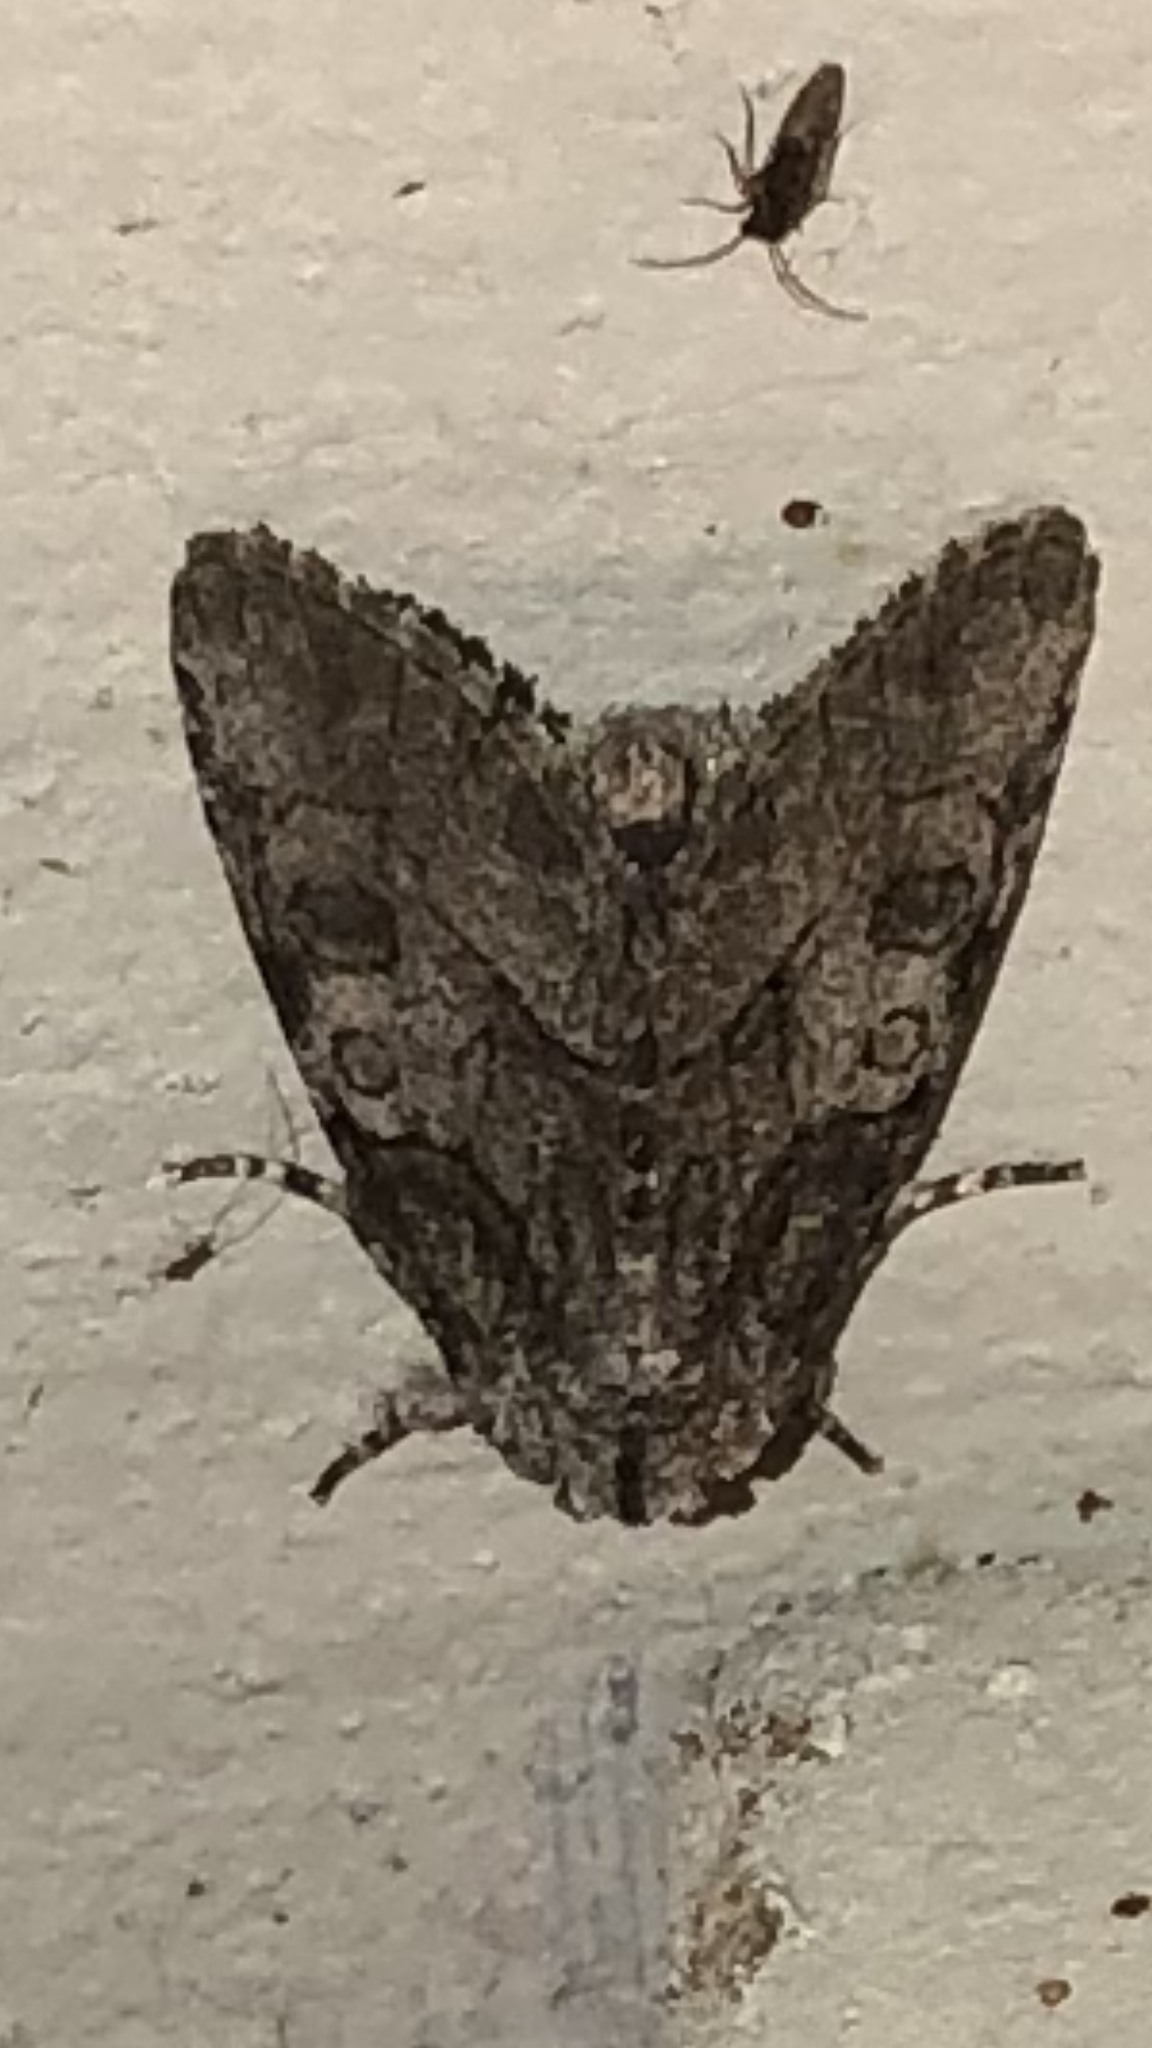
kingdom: Animalia
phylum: Arthropoda
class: Insecta
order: Lepidoptera
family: Noctuidae
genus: Raphia
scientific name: Raphia frater
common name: Brother
